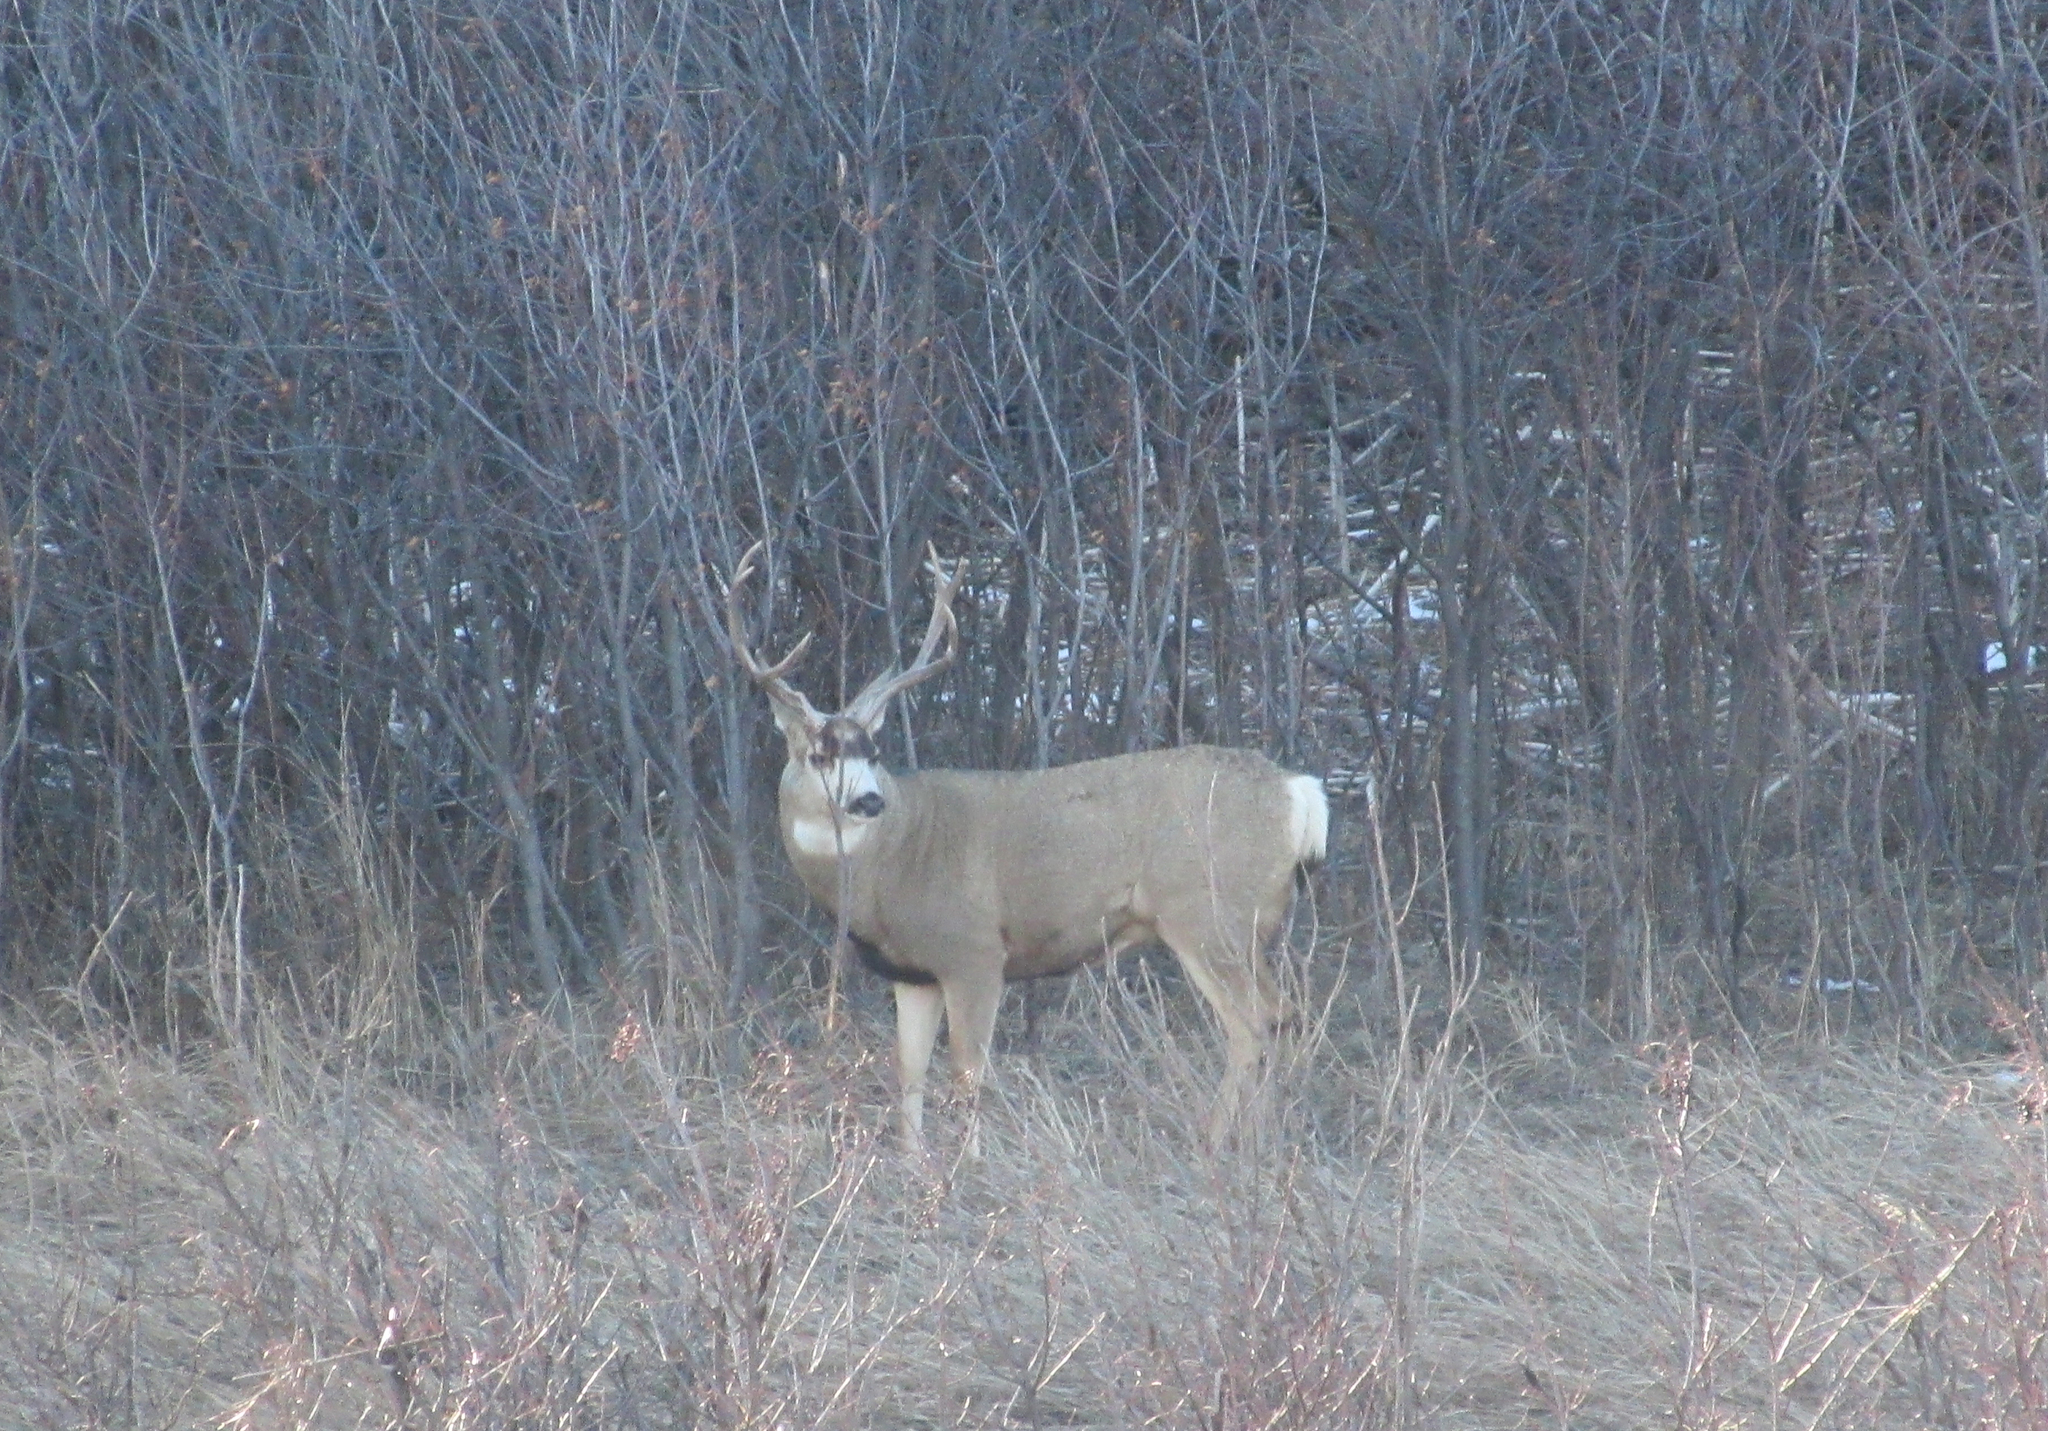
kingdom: Animalia
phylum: Chordata
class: Mammalia
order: Artiodactyla
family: Cervidae
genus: Odocoileus
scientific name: Odocoileus hemionus
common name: Mule deer
